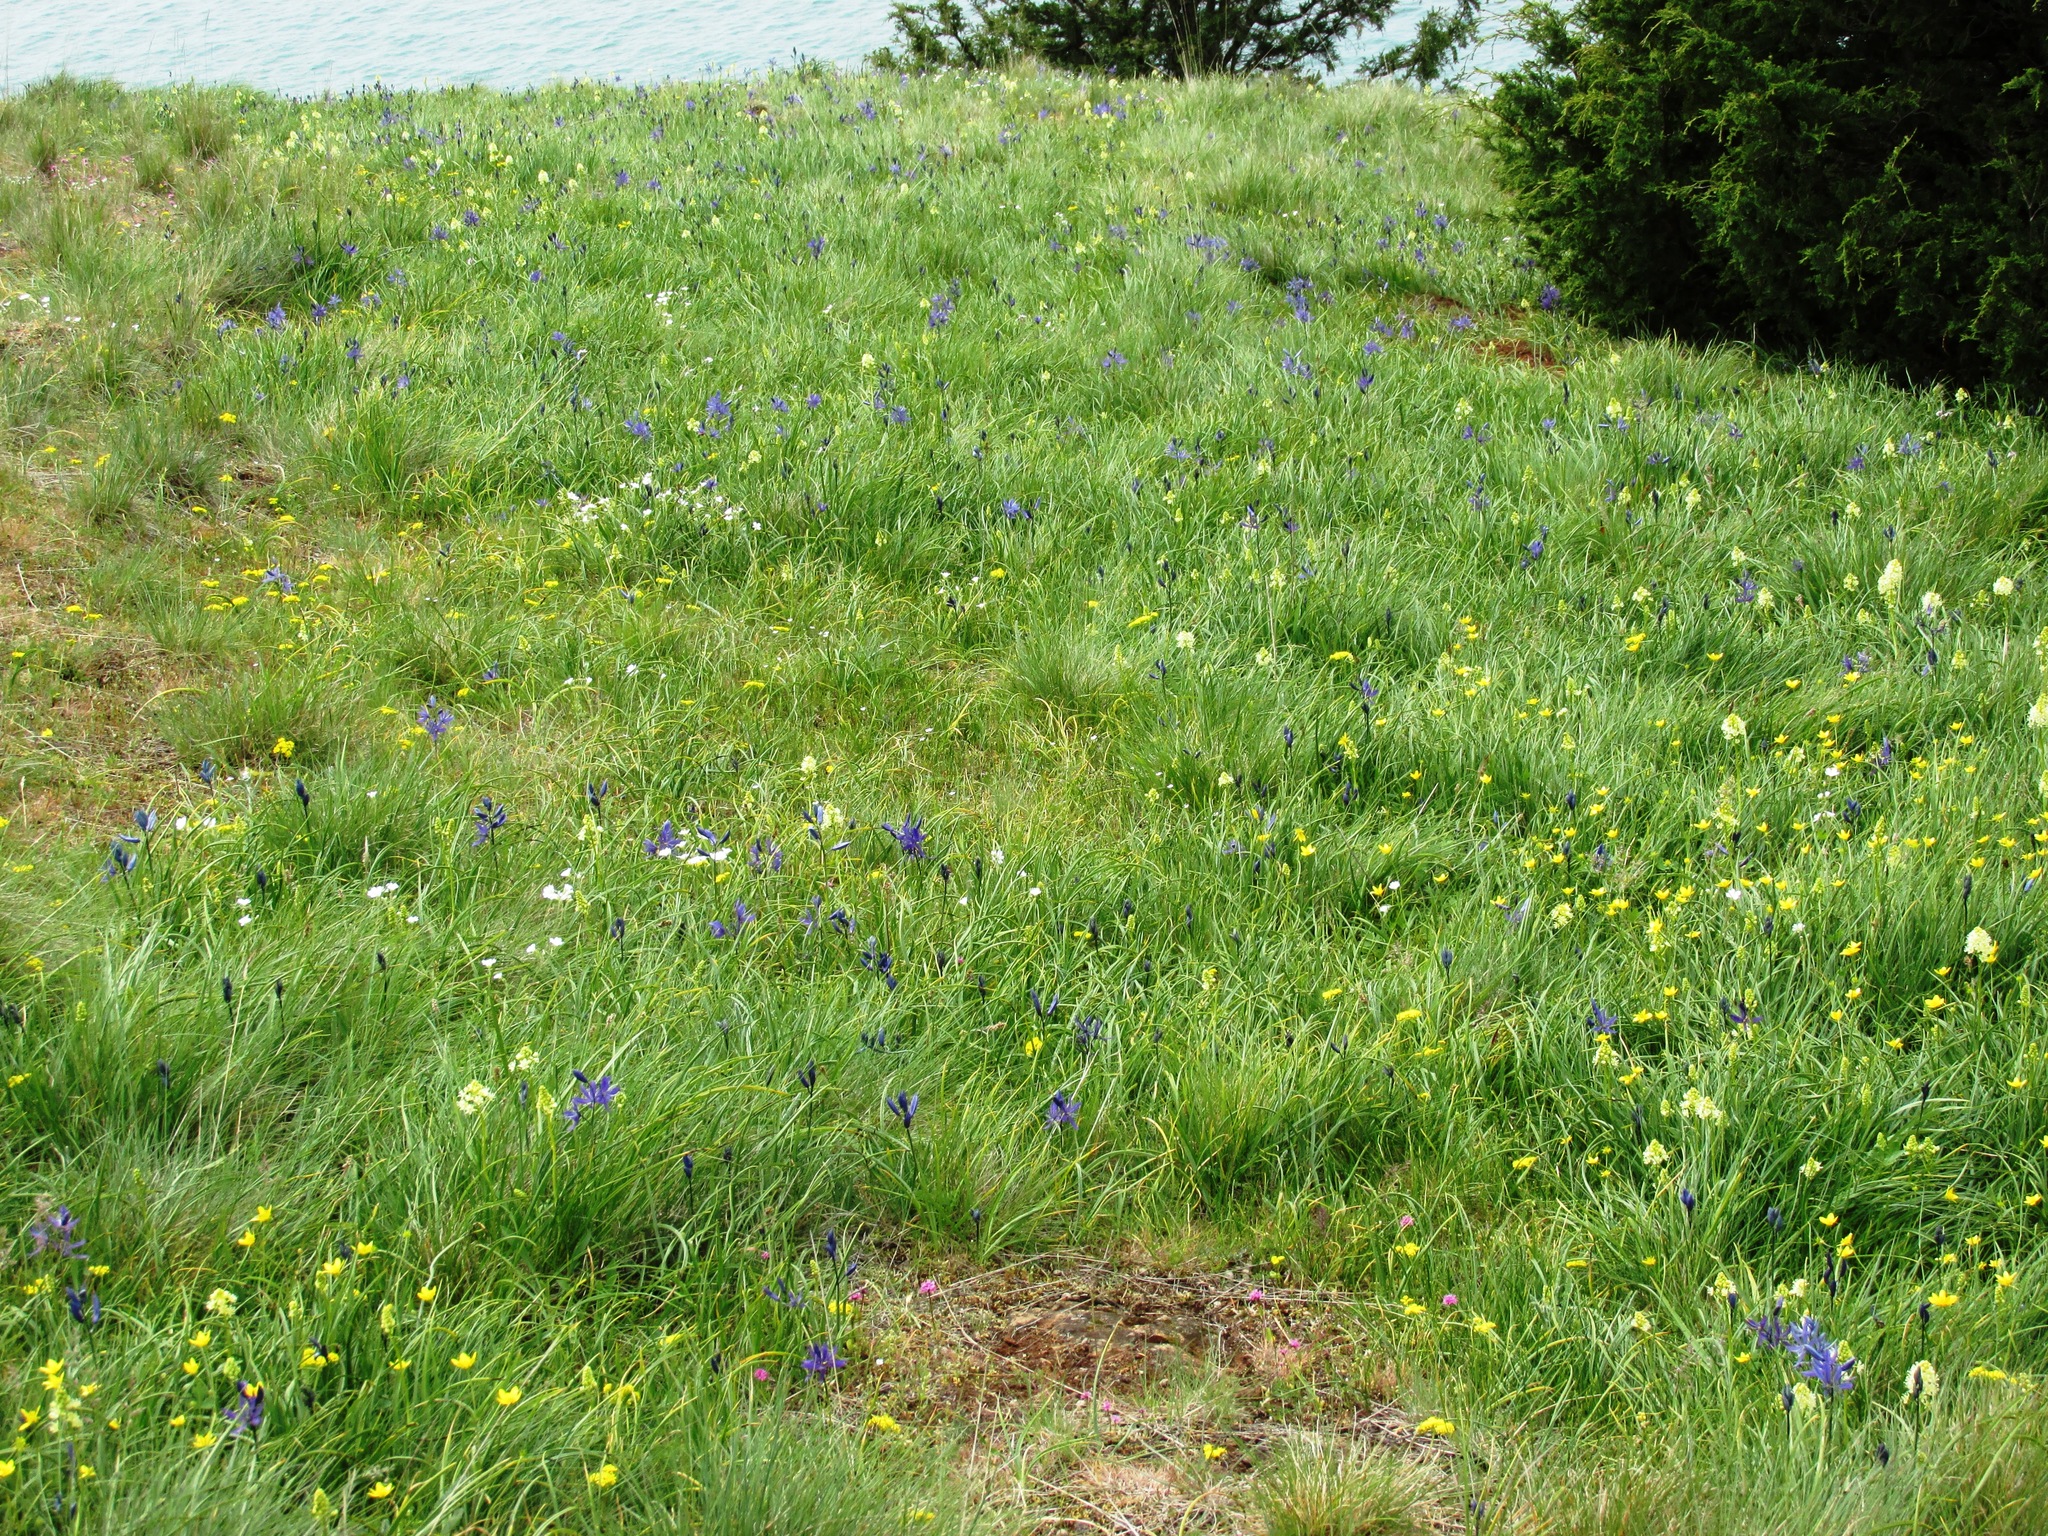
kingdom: Plantae
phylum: Tracheophyta
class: Liliopsida
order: Liliales
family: Melanthiaceae
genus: Toxicoscordion
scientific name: Toxicoscordion venenosum
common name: Meadow death camas
